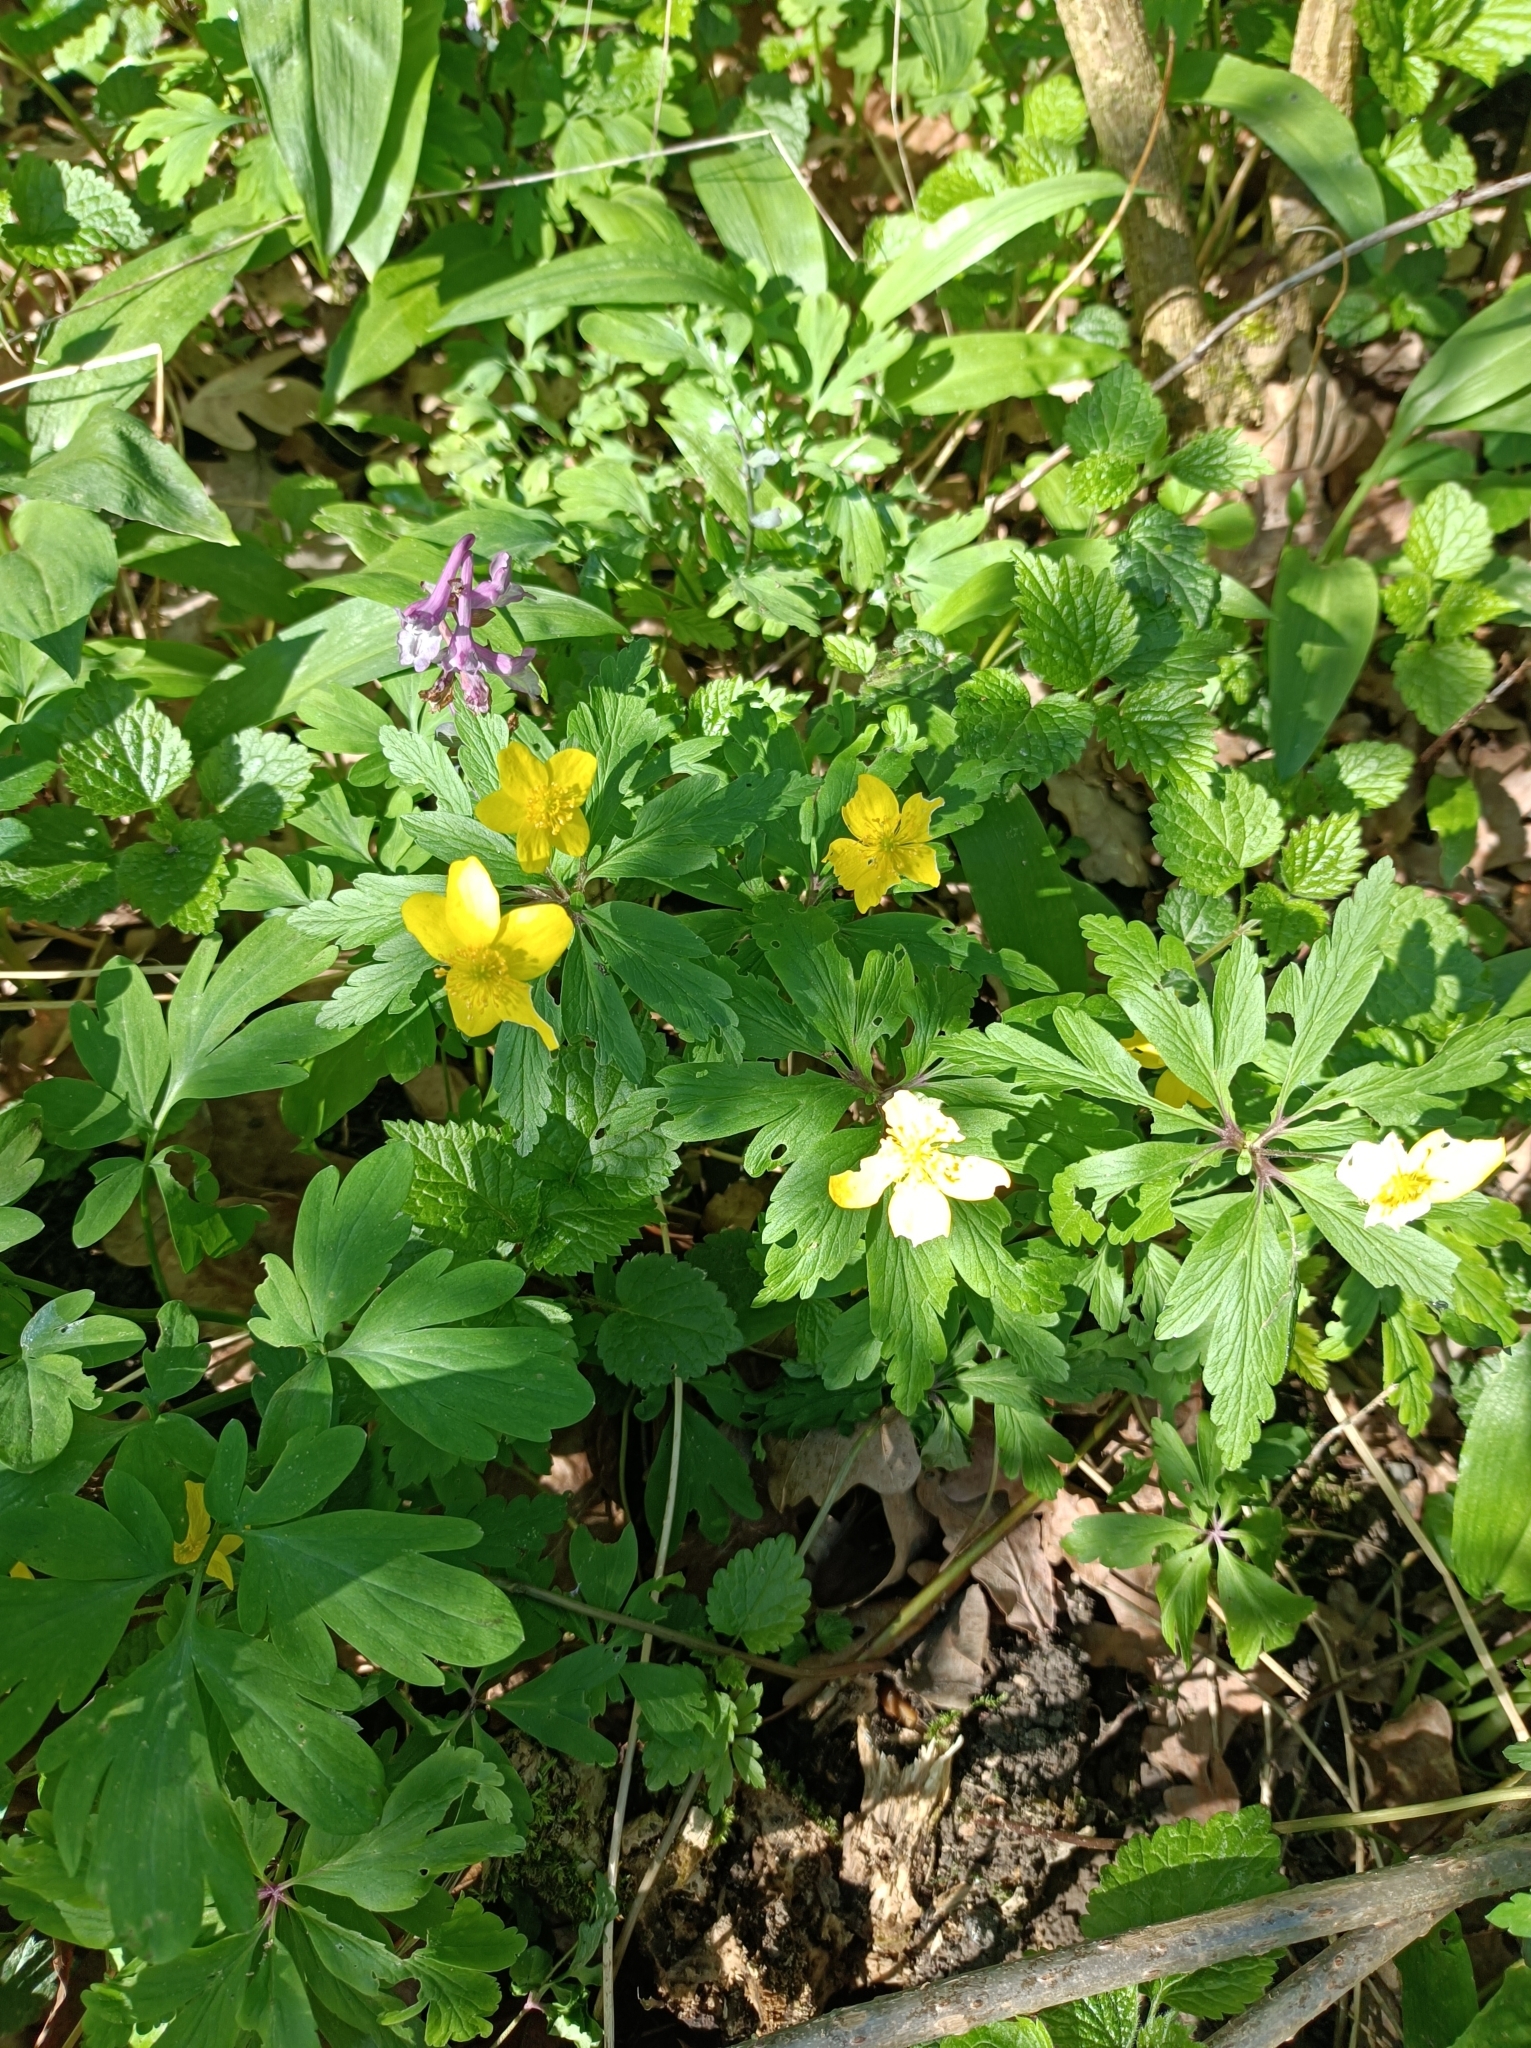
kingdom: Plantae
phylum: Tracheophyta
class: Magnoliopsida
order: Ranunculales
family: Ranunculaceae
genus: Anemone
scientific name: Anemone ranunculoides
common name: Yellow anemone
